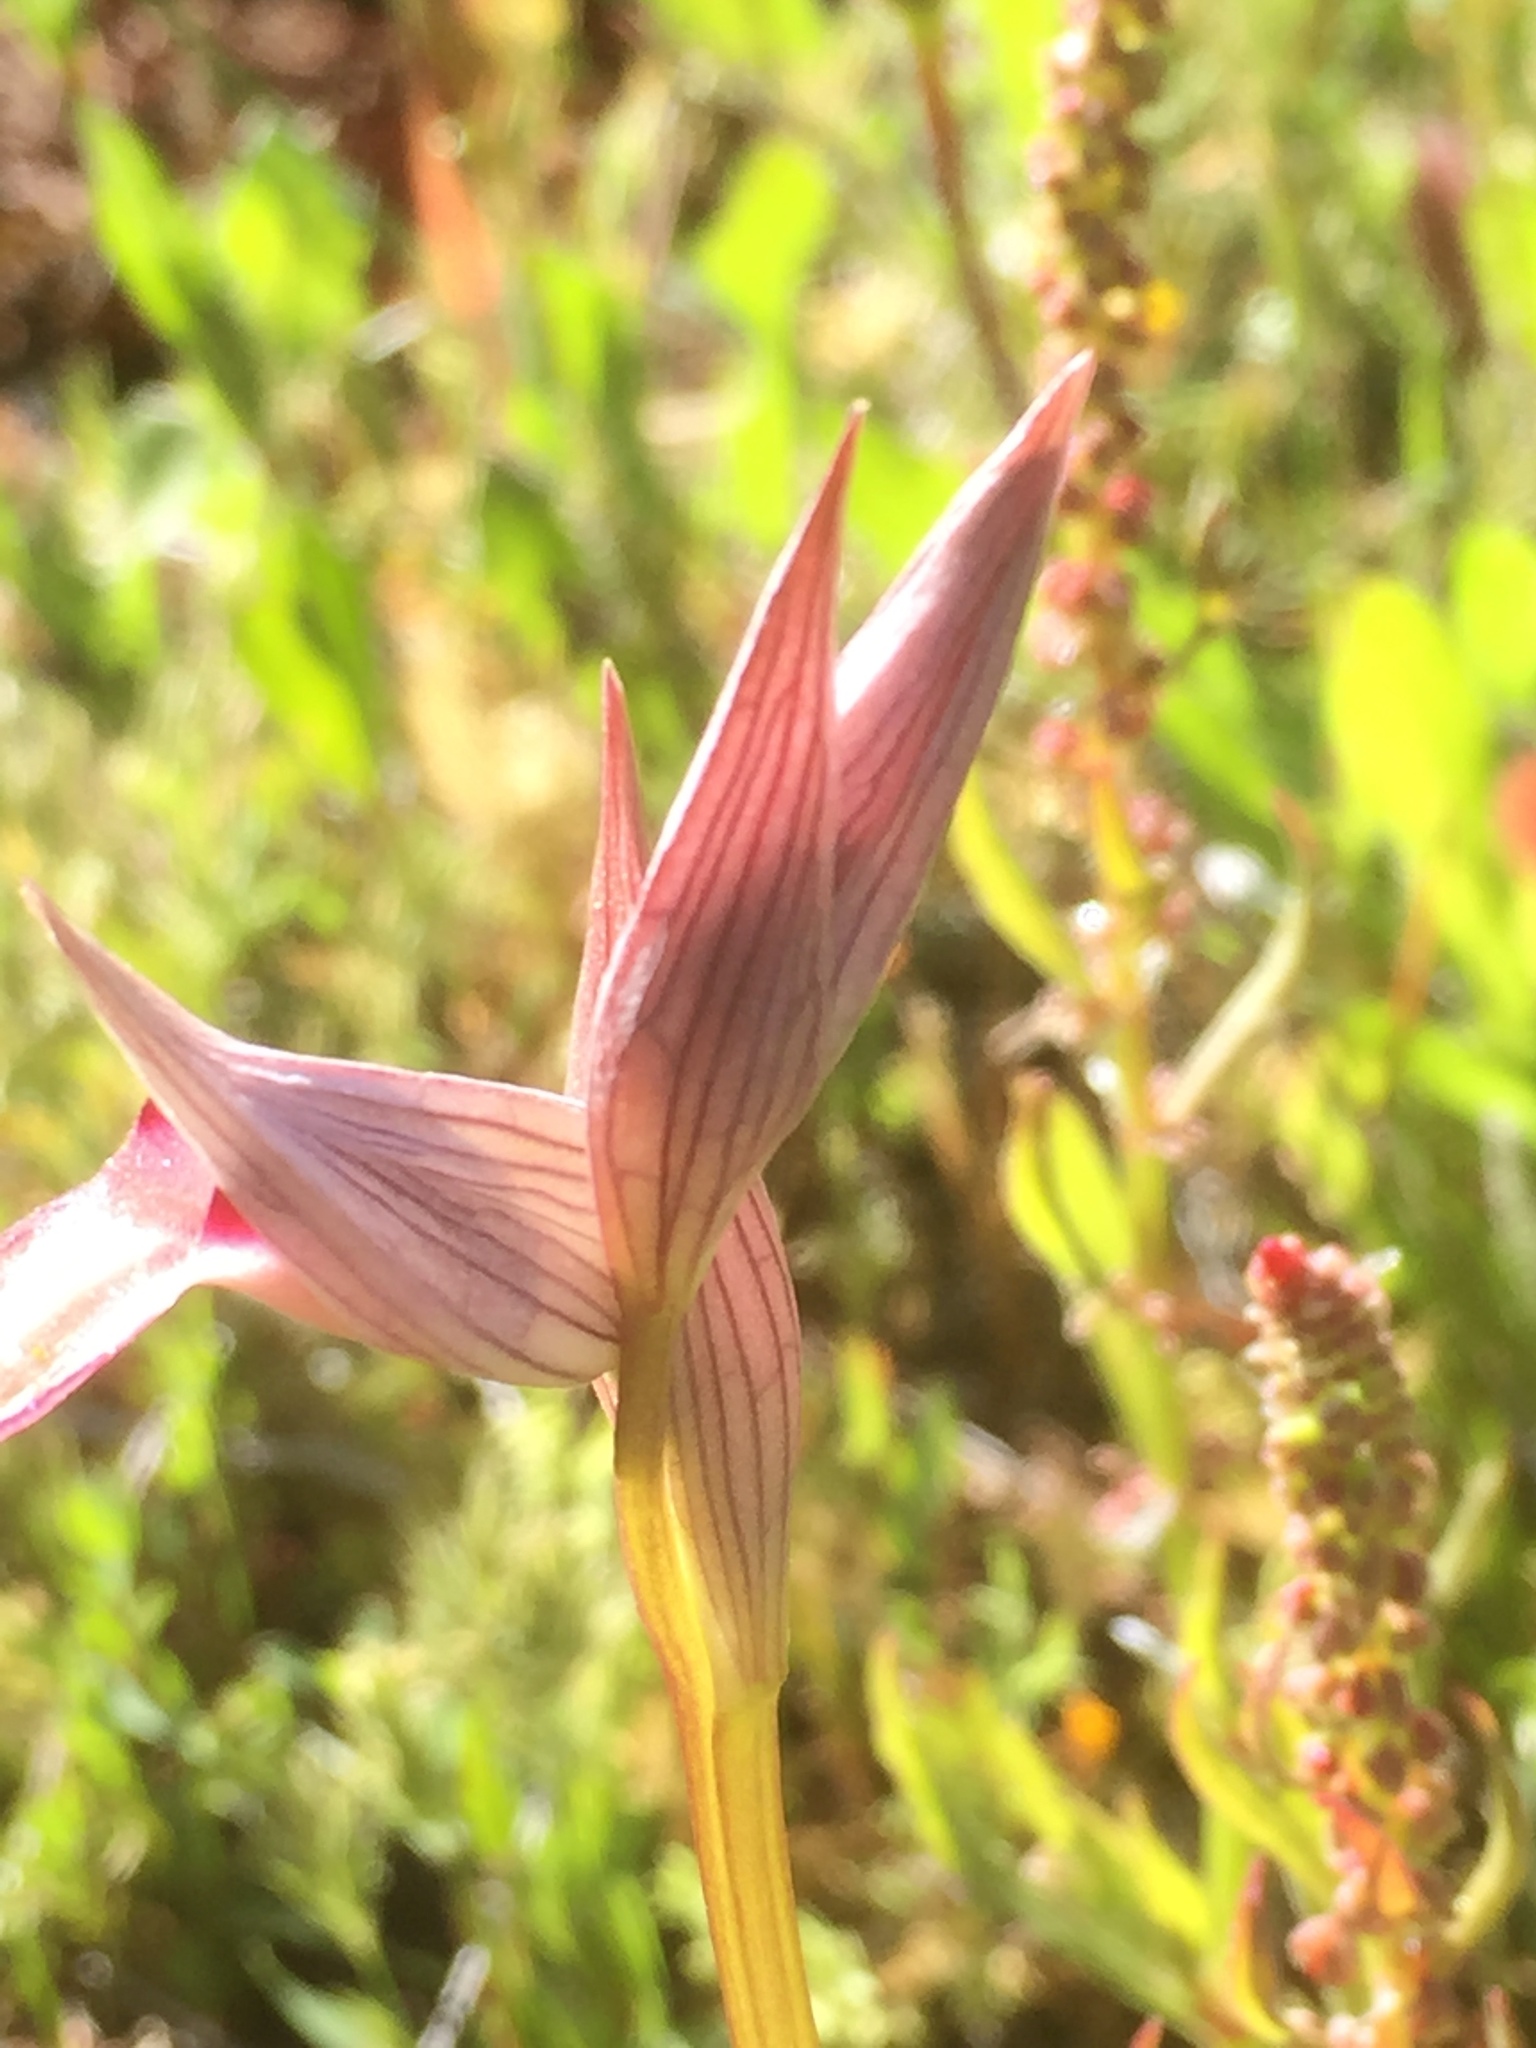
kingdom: Plantae
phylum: Tracheophyta
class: Liliopsida
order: Asparagales
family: Orchidaceae
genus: Serapias
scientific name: Serapias lingua
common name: Tongue-orchid
